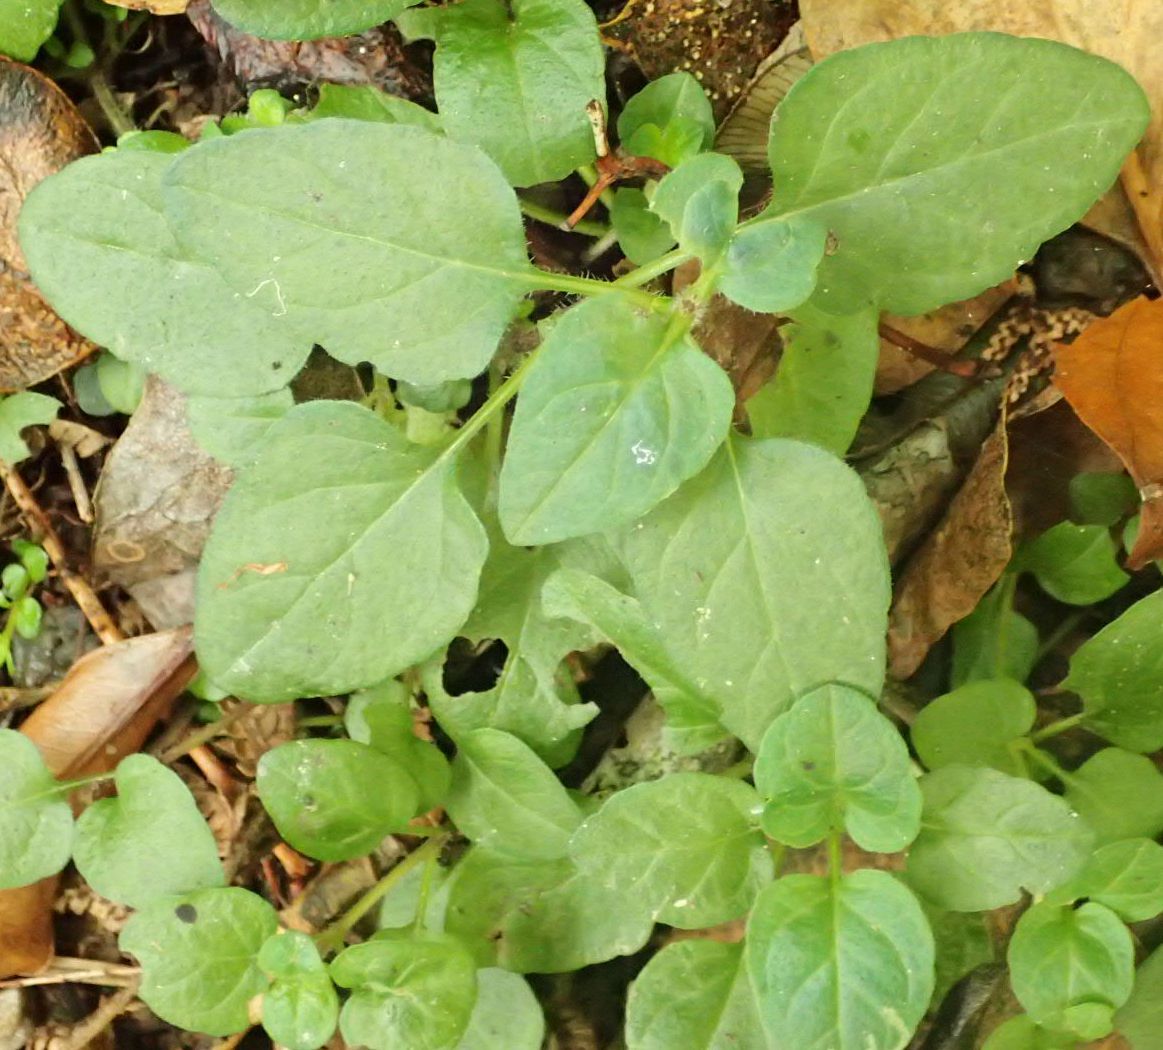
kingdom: Plantae
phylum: Tracheophyta
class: Magnoliopsida
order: Lamiales
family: Lamiaceae
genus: Prunella
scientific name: Prunella vulgaris
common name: Heal-all
